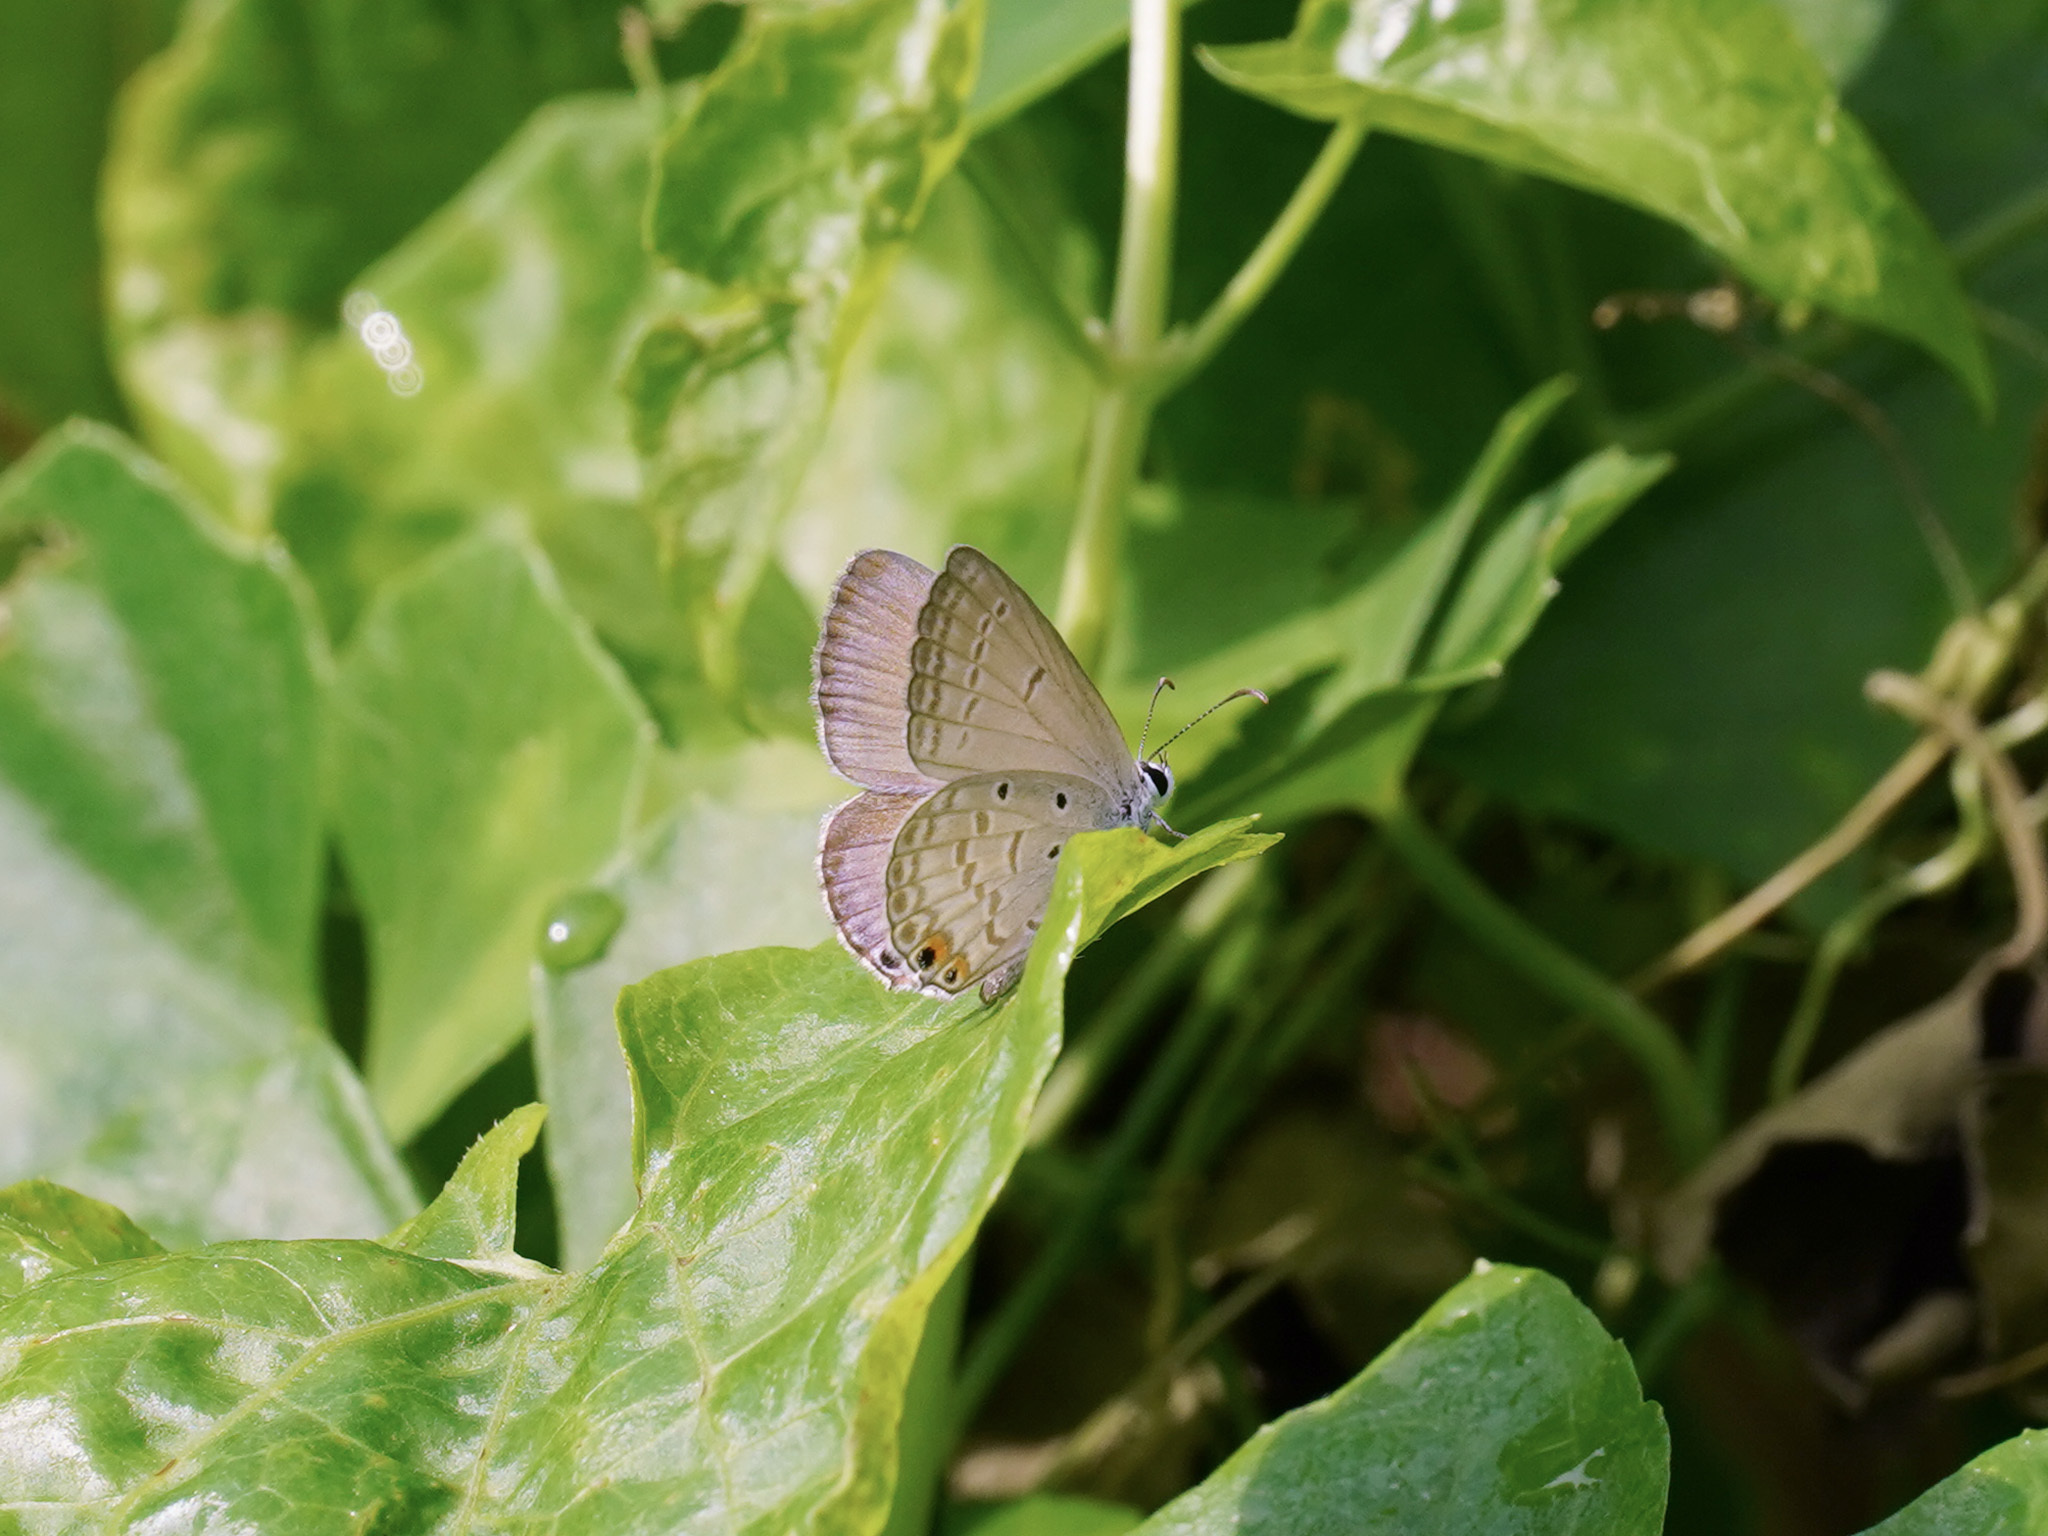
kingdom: Animalia
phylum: Arthropoda
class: Insecta
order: Lepidoptera
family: Lycaenidae
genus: Euchrysops
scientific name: Euchrysops cnejus
